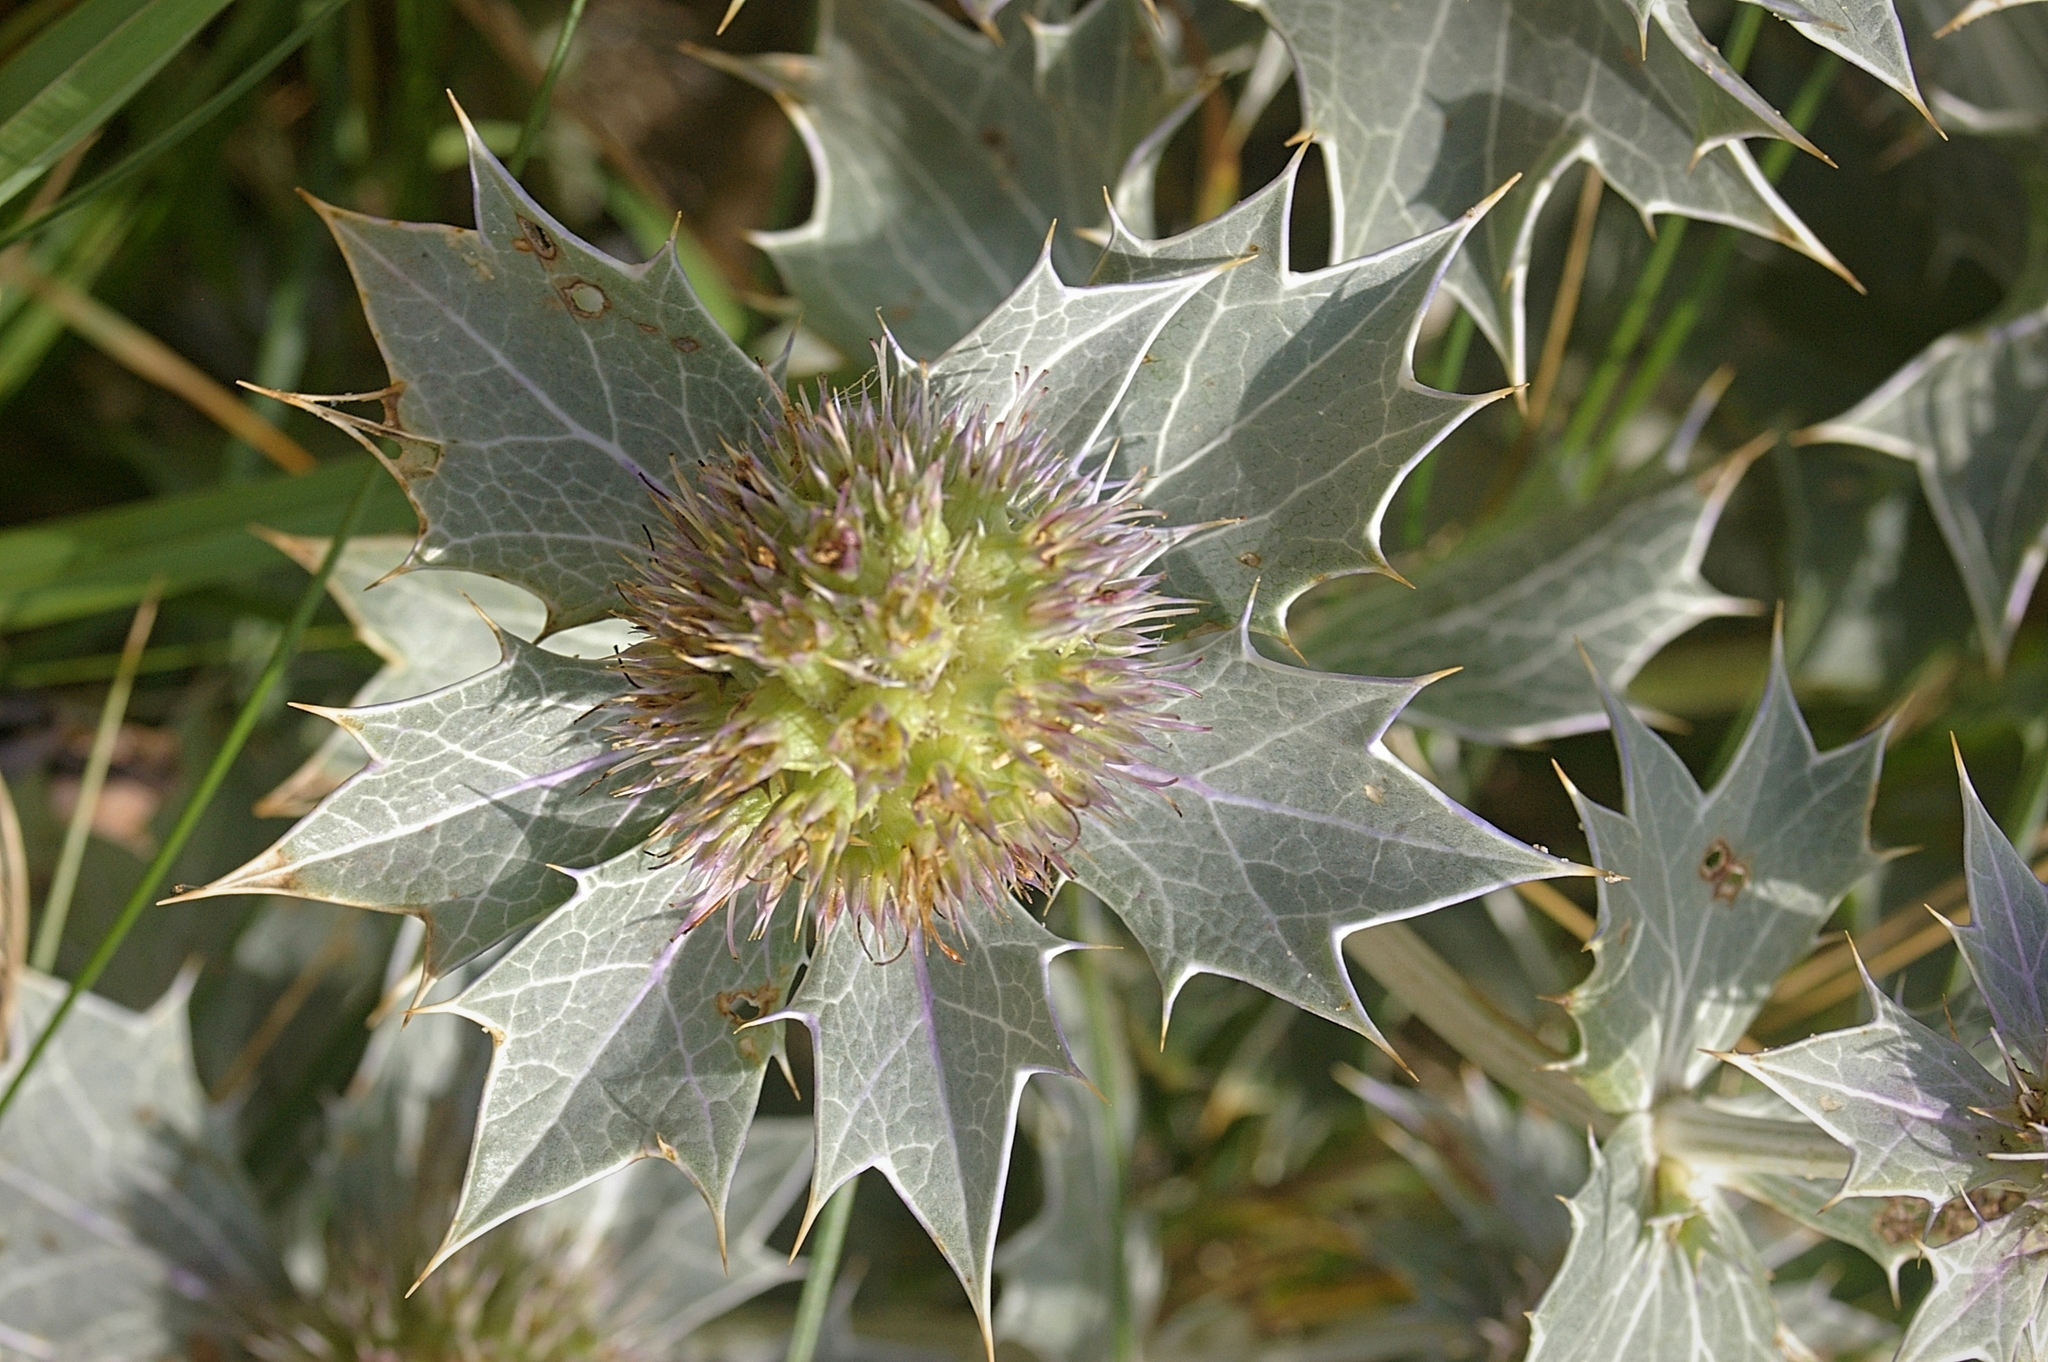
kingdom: Plantae
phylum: Tracheophyta
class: Magnoliopsida
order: Apiales
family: Apiaceae
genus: Eryngium
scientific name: Eryngium maritimum
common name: Sea-holly
